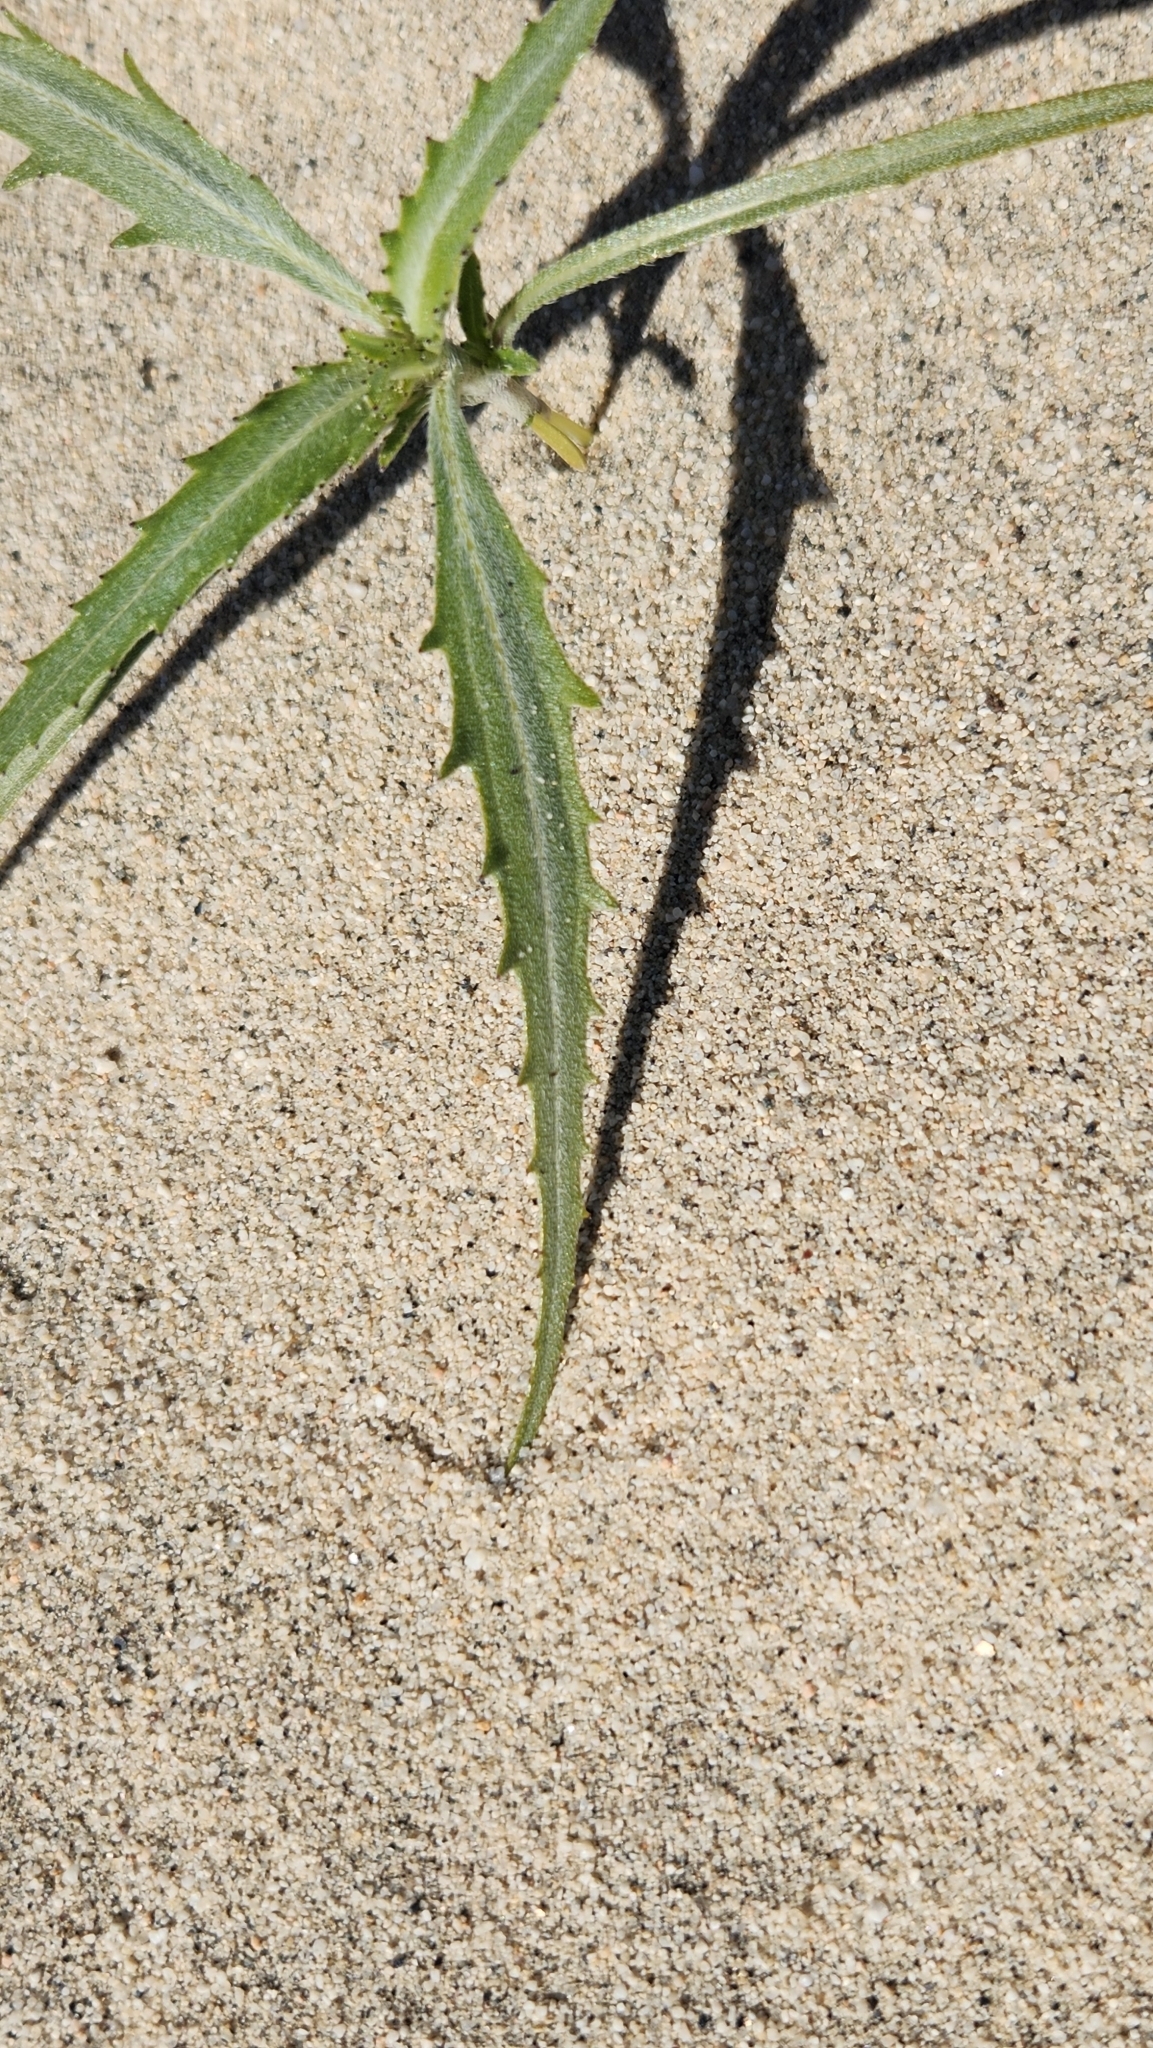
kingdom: Plantae
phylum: Tracheophyta
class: Magnoliopsida
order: Asterales
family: Asteraceae
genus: Dicoria
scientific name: Dicoria canescens
